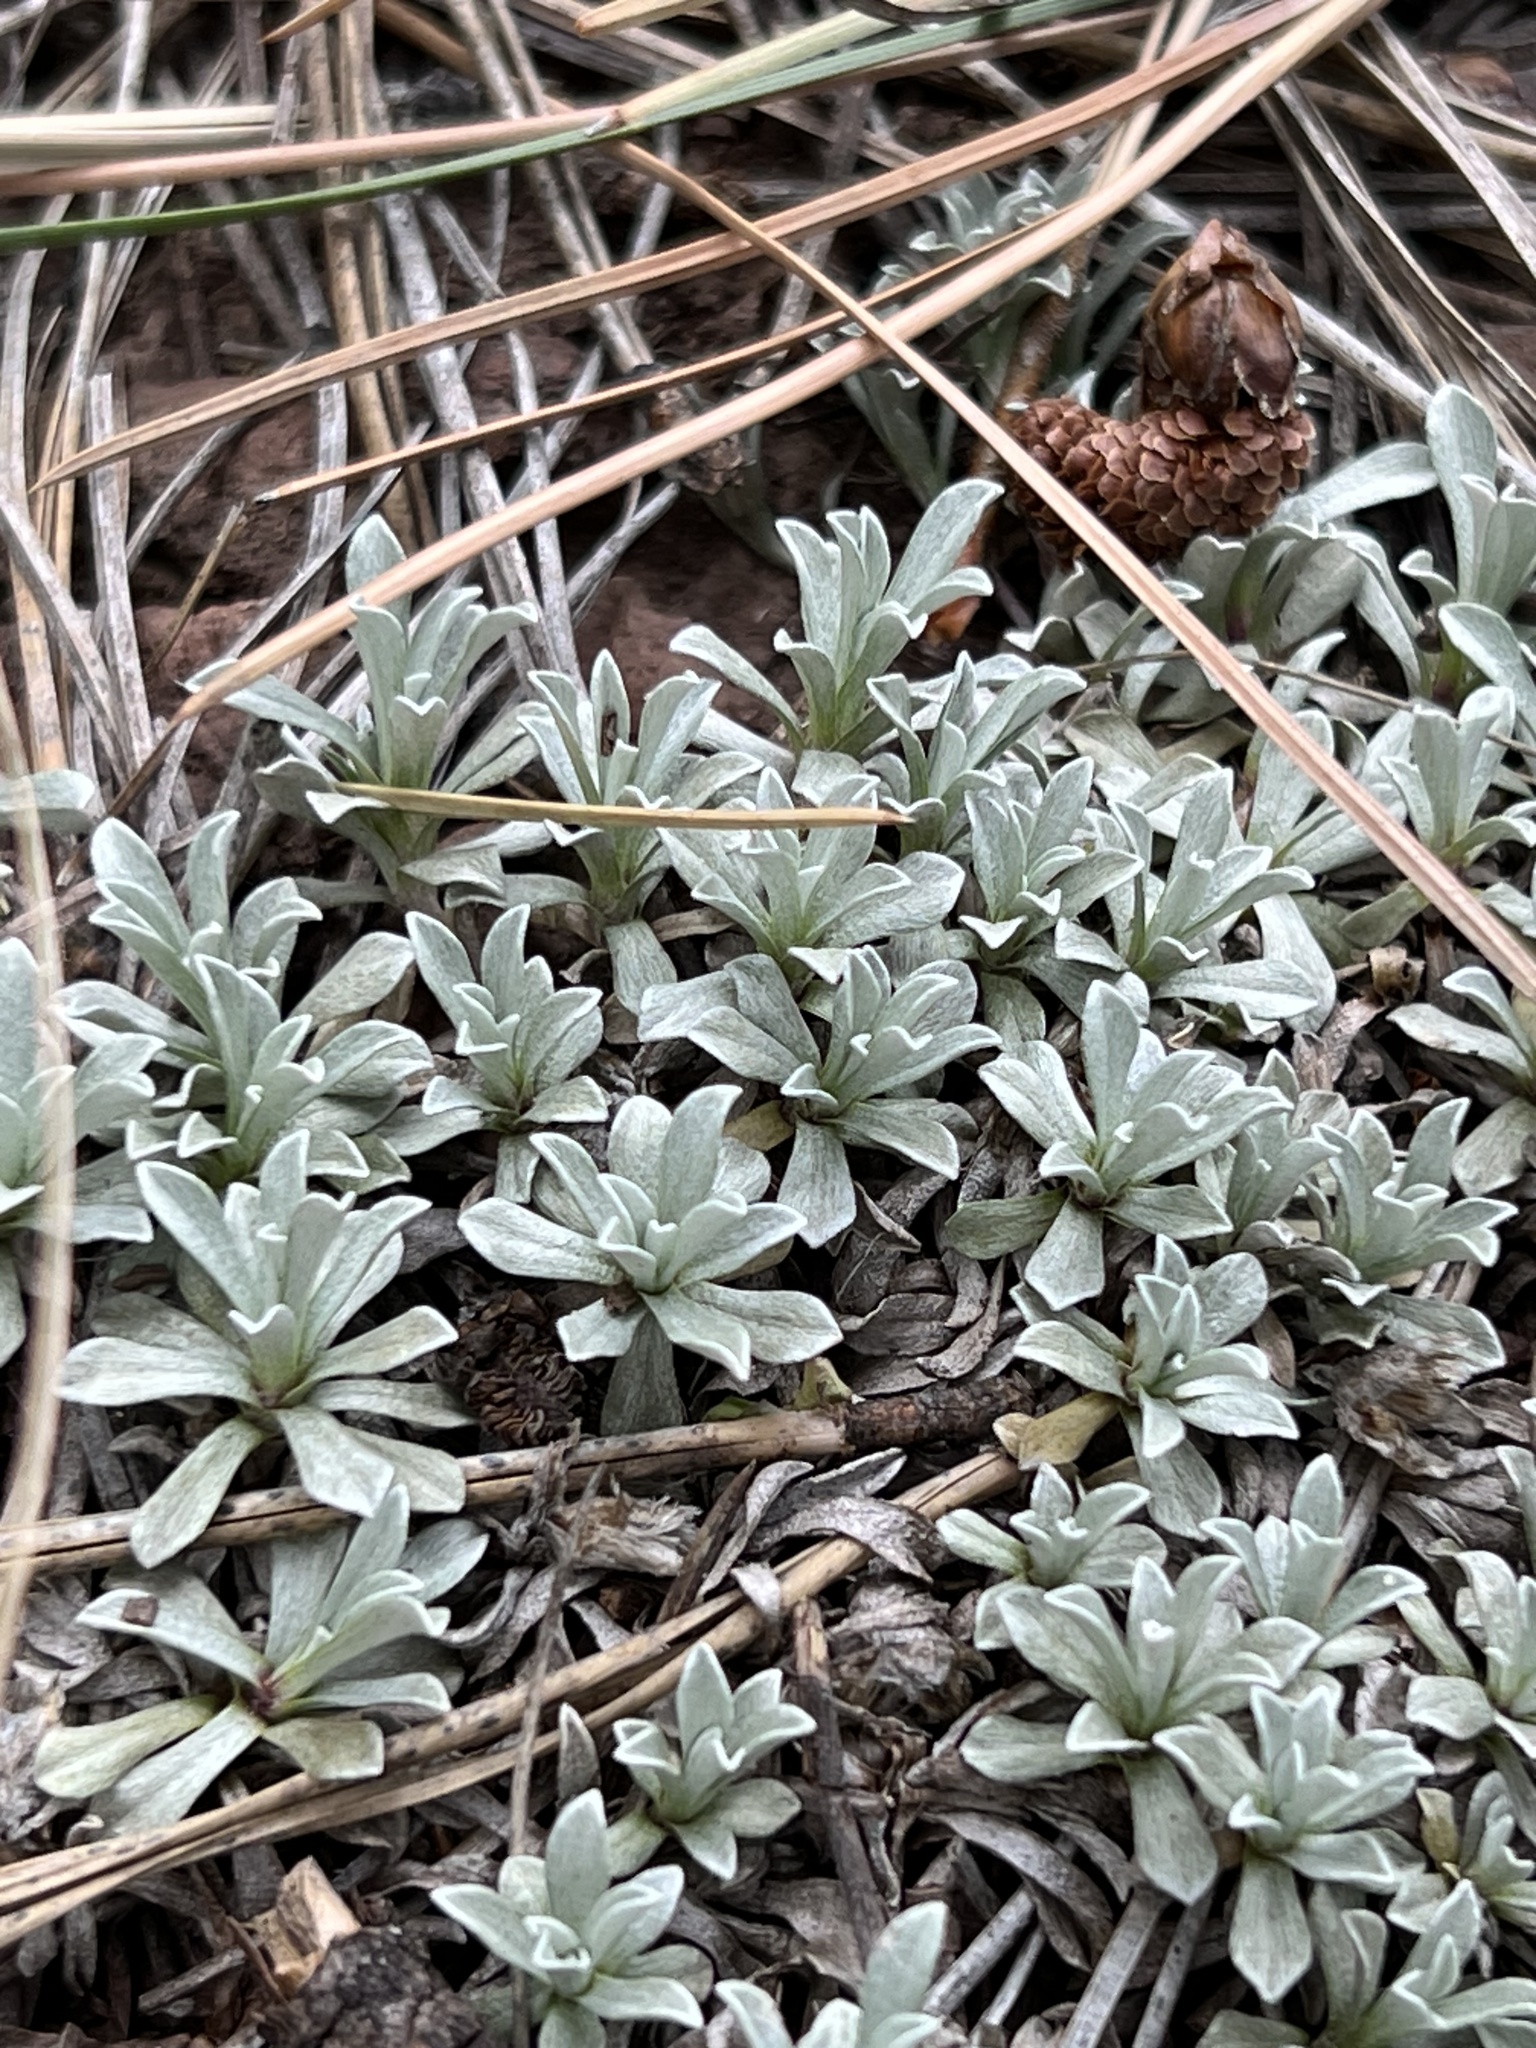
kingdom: Plantae
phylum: Tracheophyta
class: Magnoliopsida
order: Asterales
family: Asteraceae
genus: Antennaria
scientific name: Antennaria parvifolia
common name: Nuttall's pussytoes
